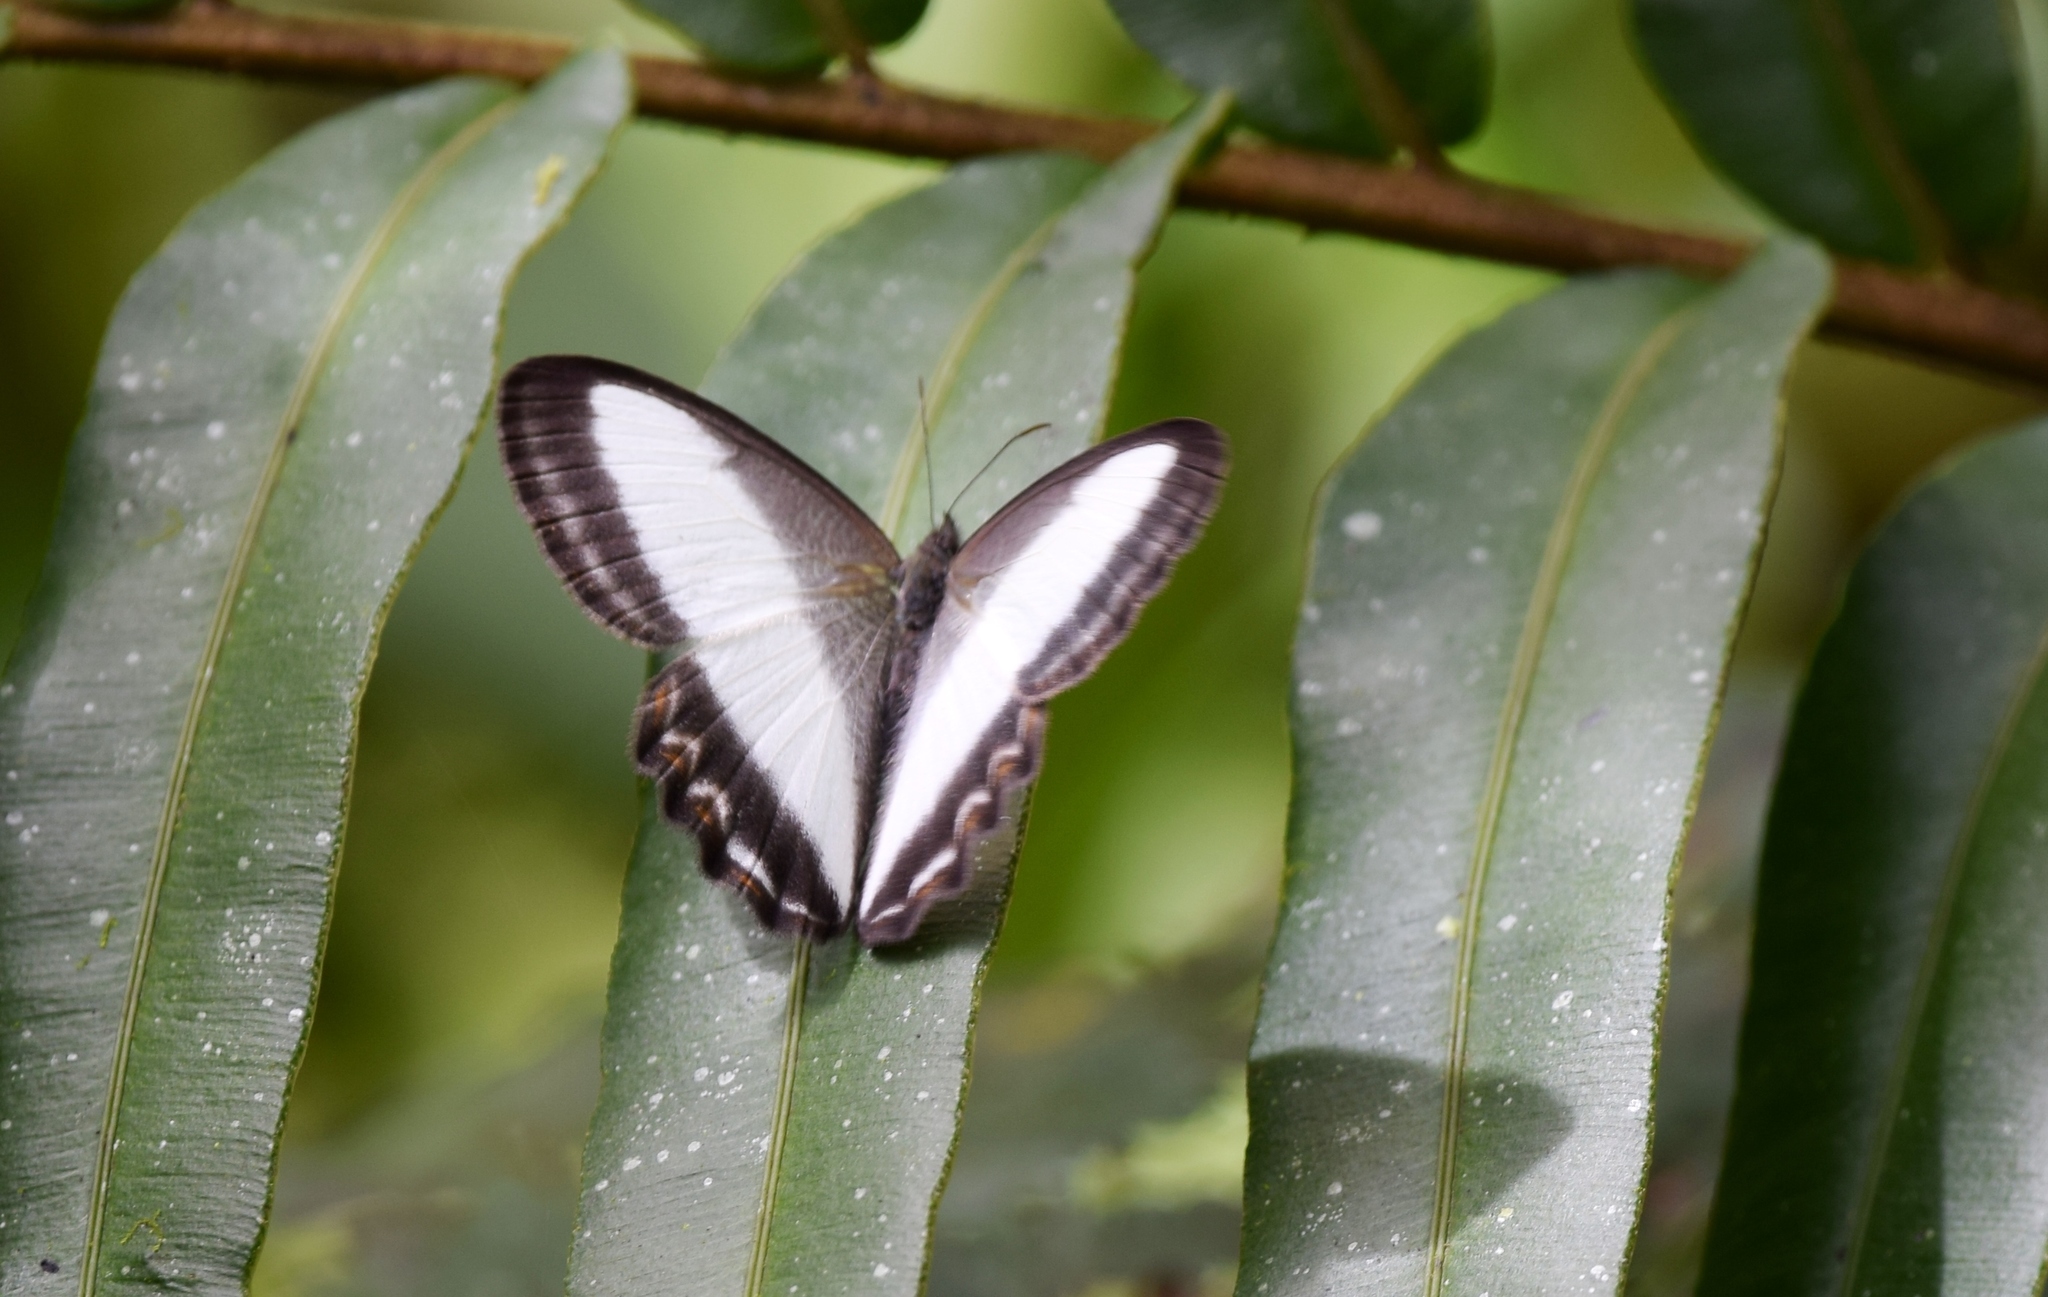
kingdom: Animalia
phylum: Arthropoda
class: Insecta
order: Lepidoptera
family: Nymphalidae
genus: Oressinoma
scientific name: Oressinoma typhla
